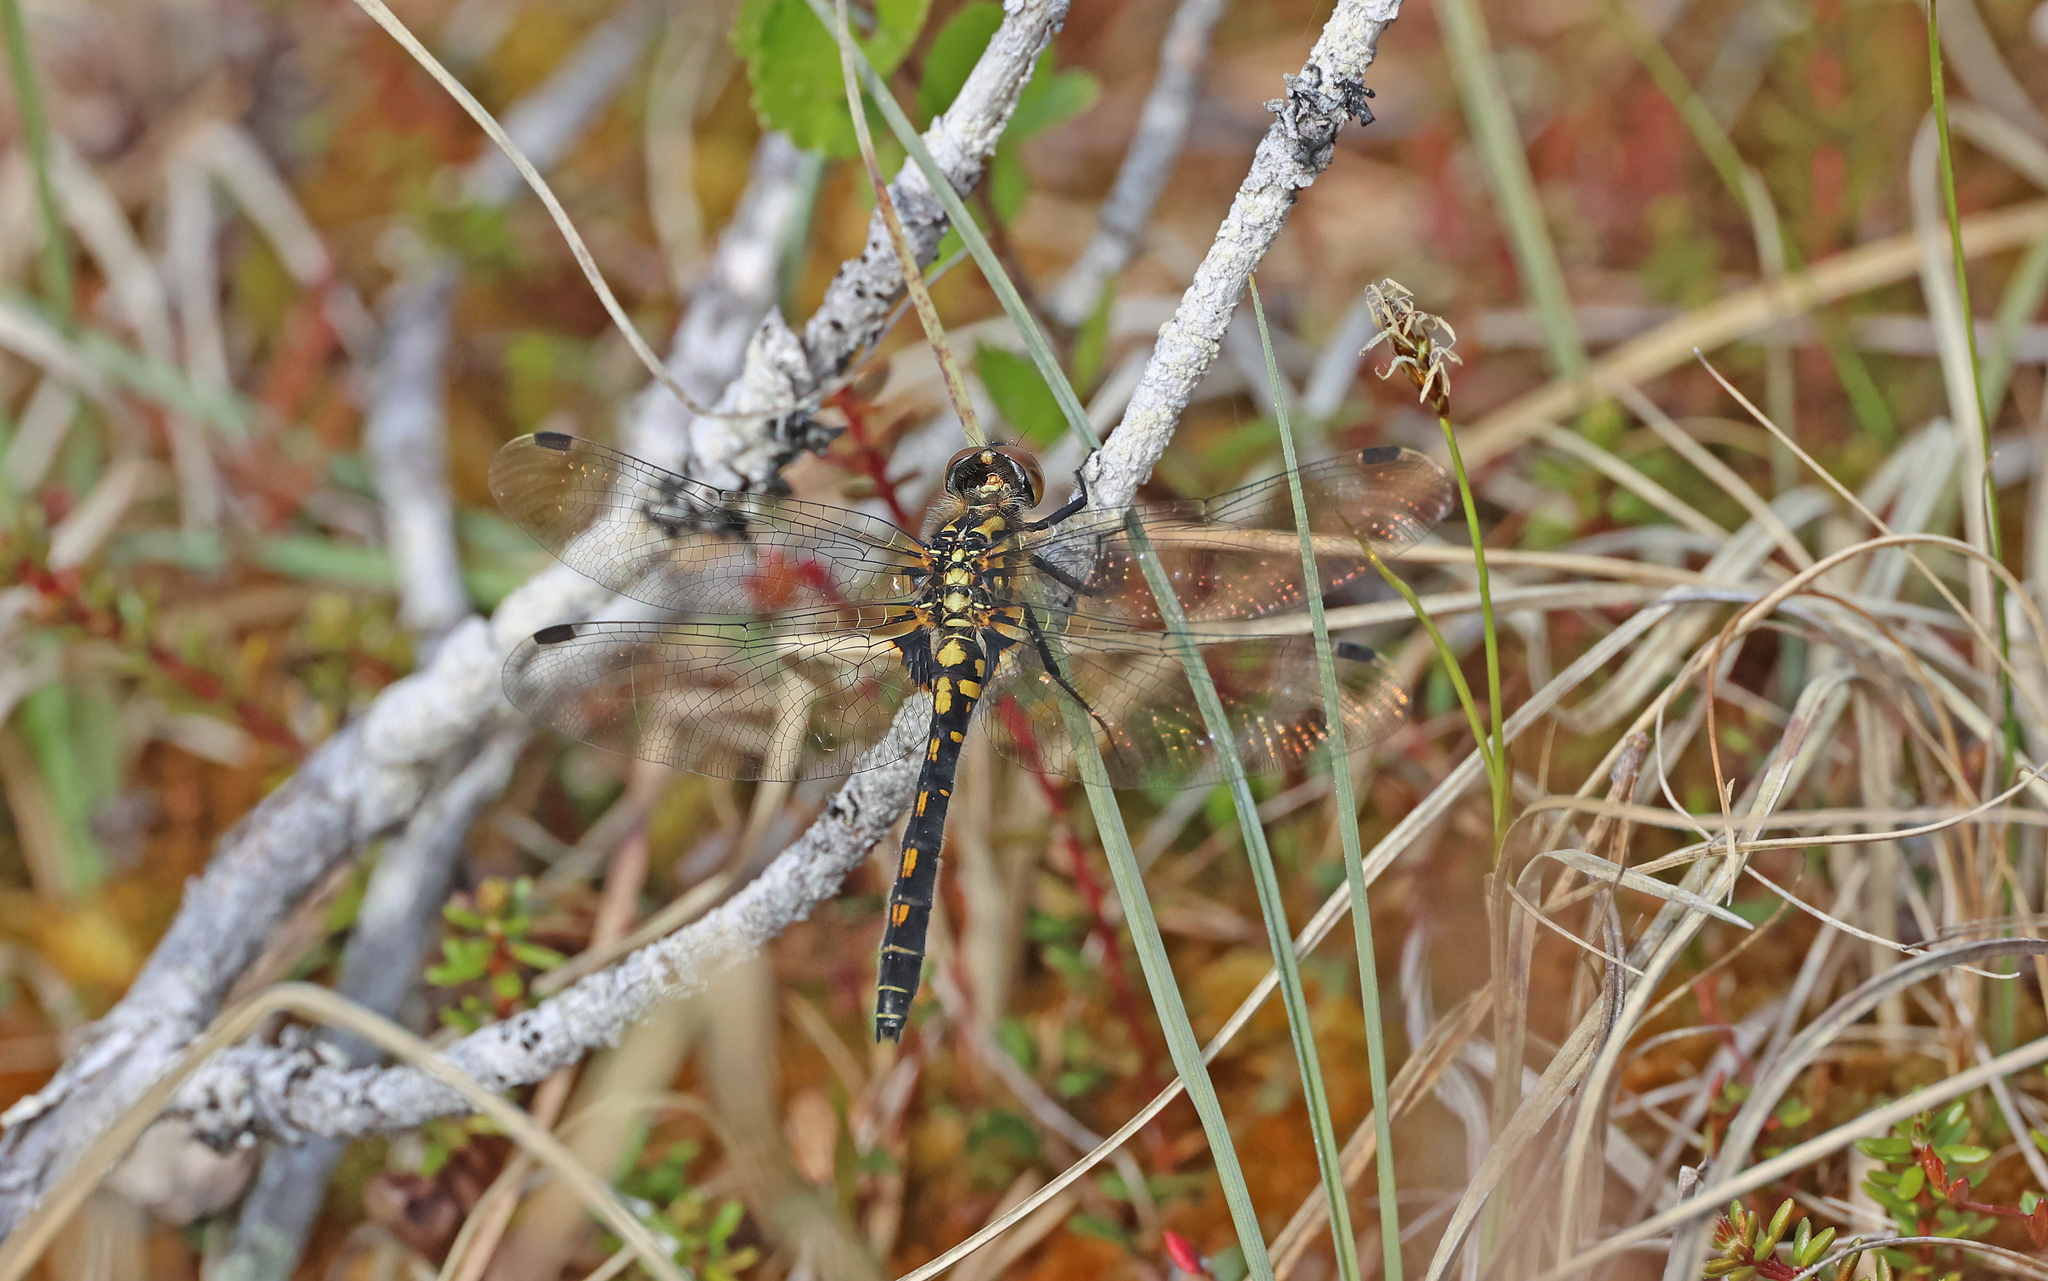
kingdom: Animalia
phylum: Arthropoda
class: Insecta
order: Odonata
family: Libellulidae
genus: Leucorrhinia
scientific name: Leucorrhinia dubia
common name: White-faced darter
